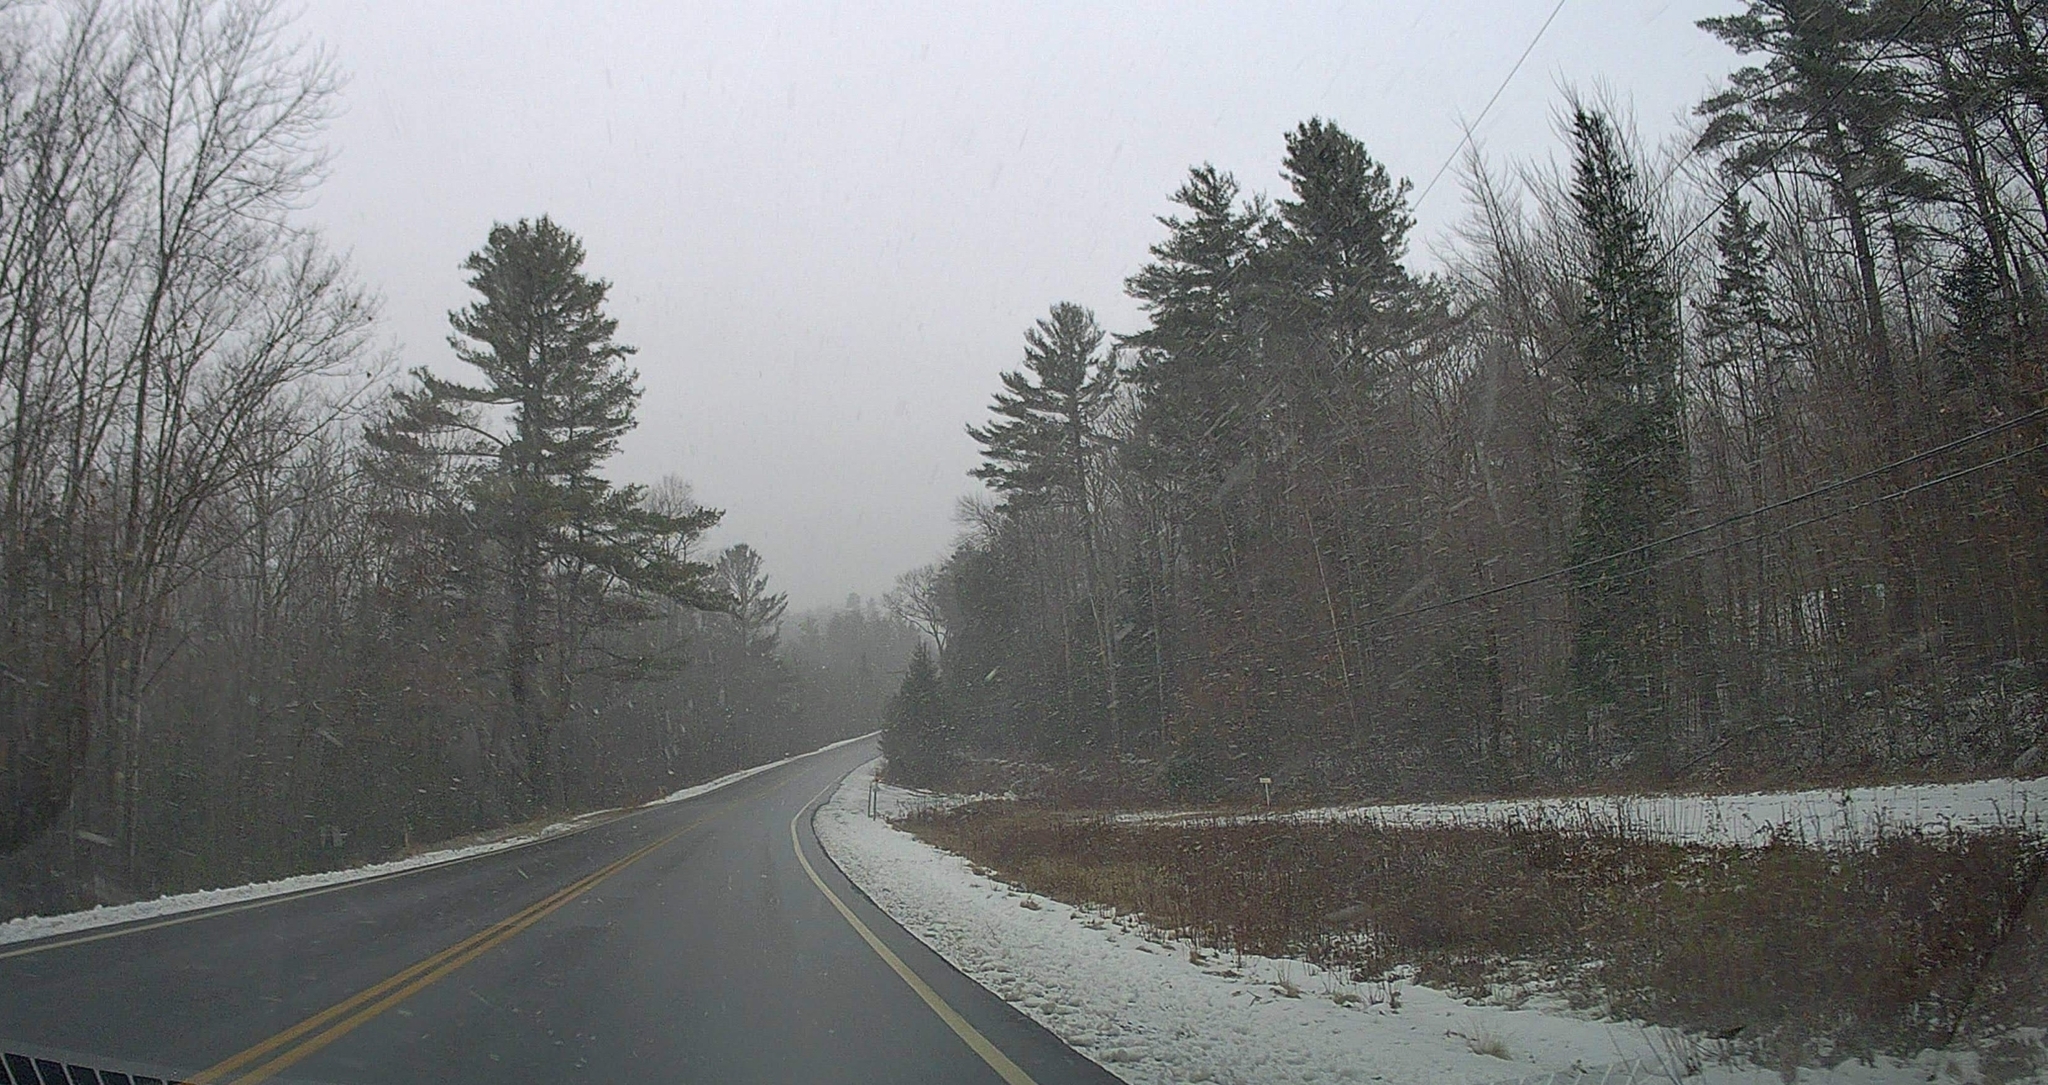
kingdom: Plantae
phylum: Tracheophyta
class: Pinopsida
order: Pinales
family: Pinaceae
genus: Pinus
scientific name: Pinus strobus
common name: Weymouth pine
